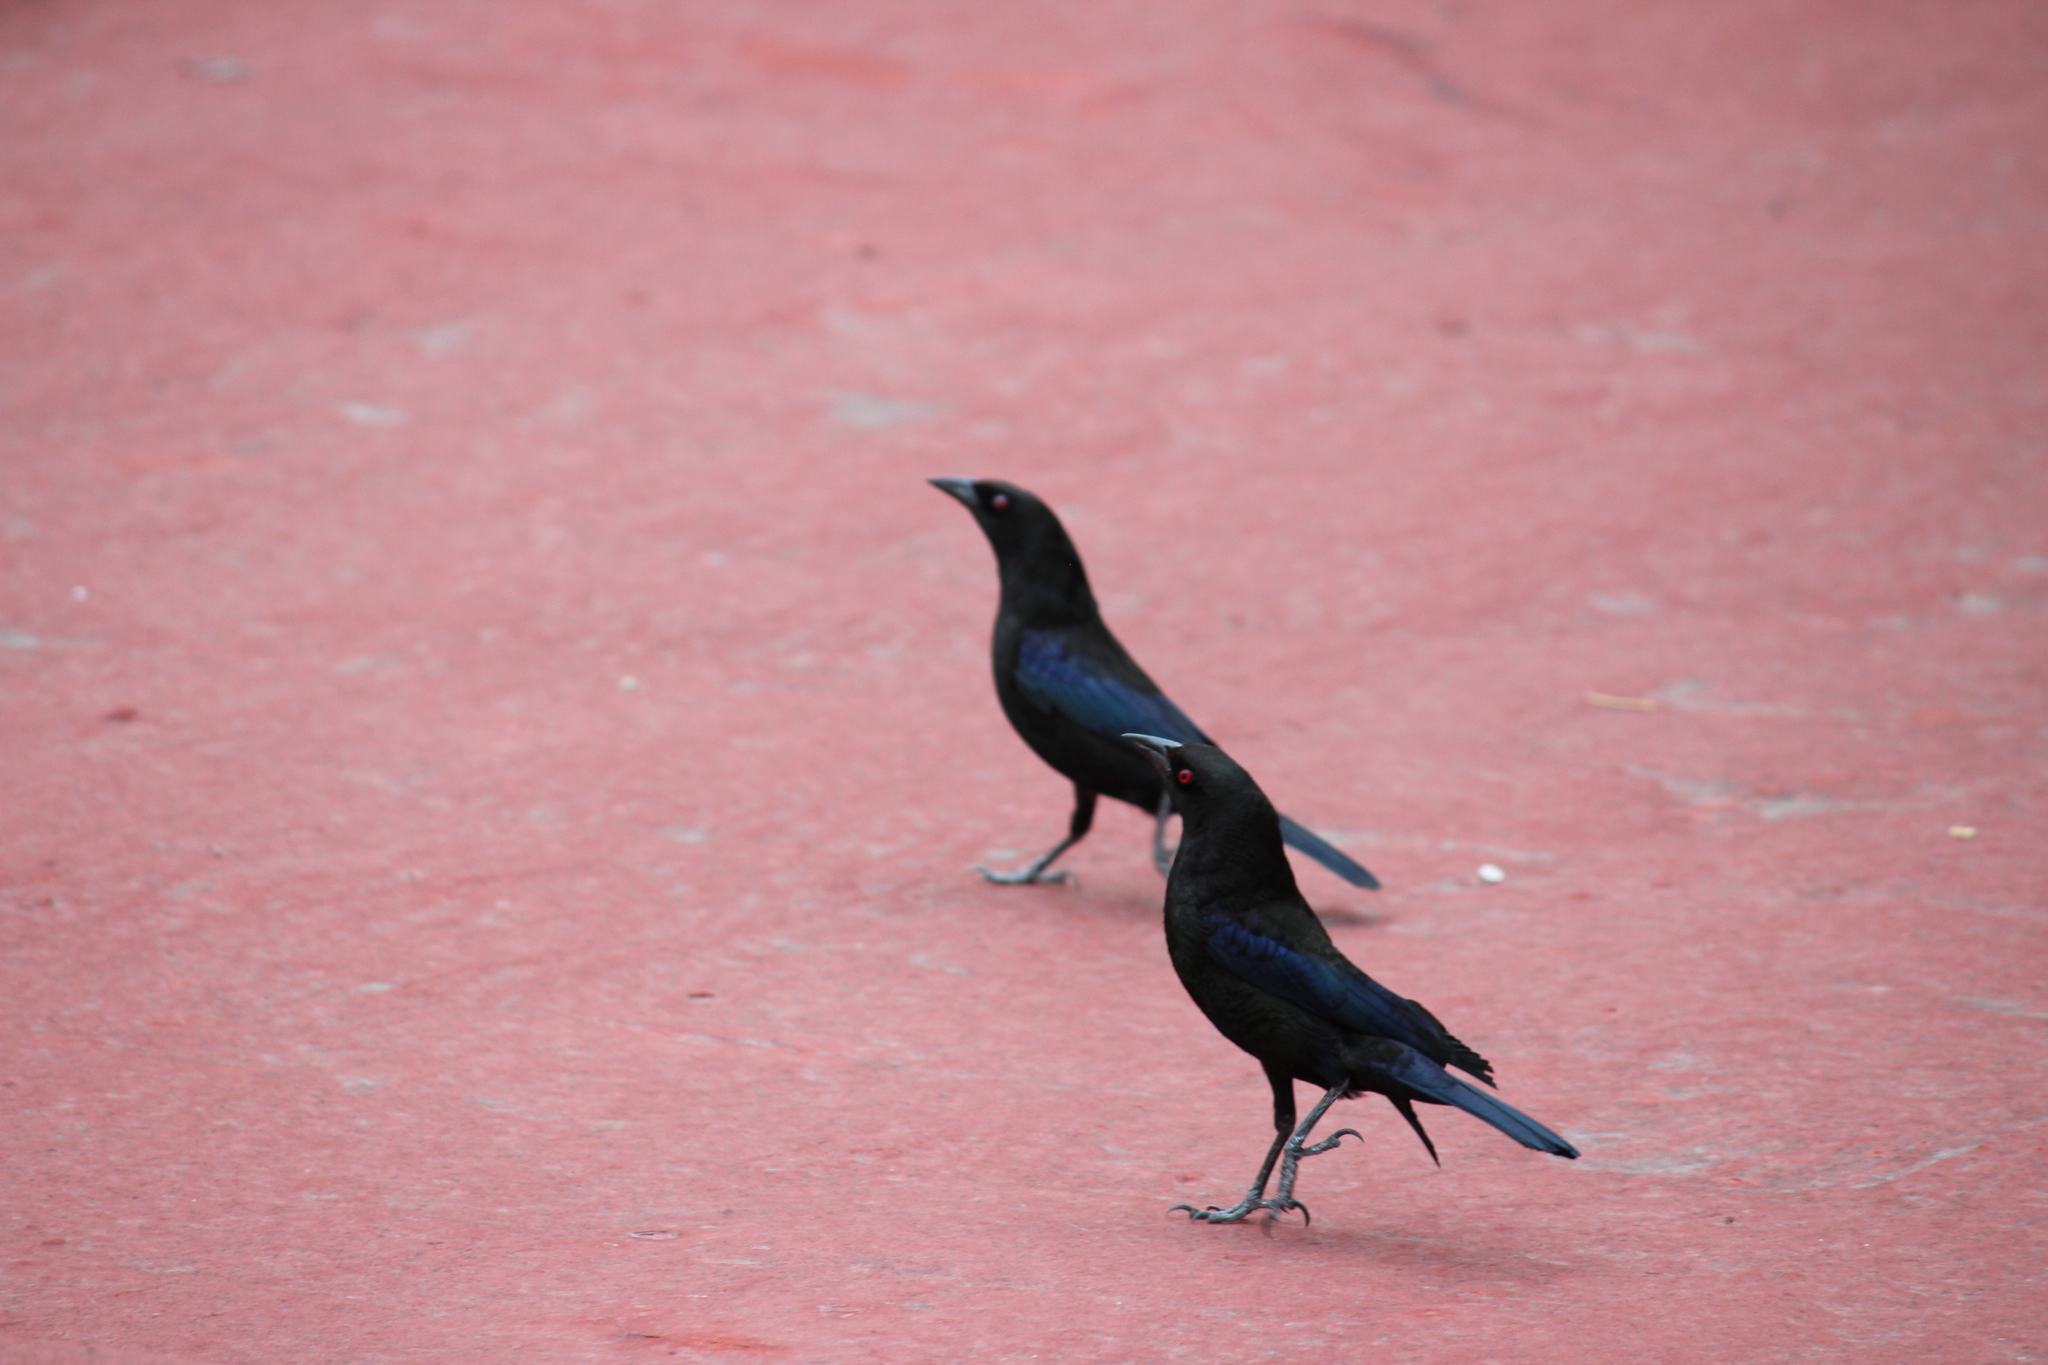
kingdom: Animalia
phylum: Chordata
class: Aves
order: Passeriformes
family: Icteridae
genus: Molothrus
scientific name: Molothrus aeneus
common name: Bronzed cowbird
